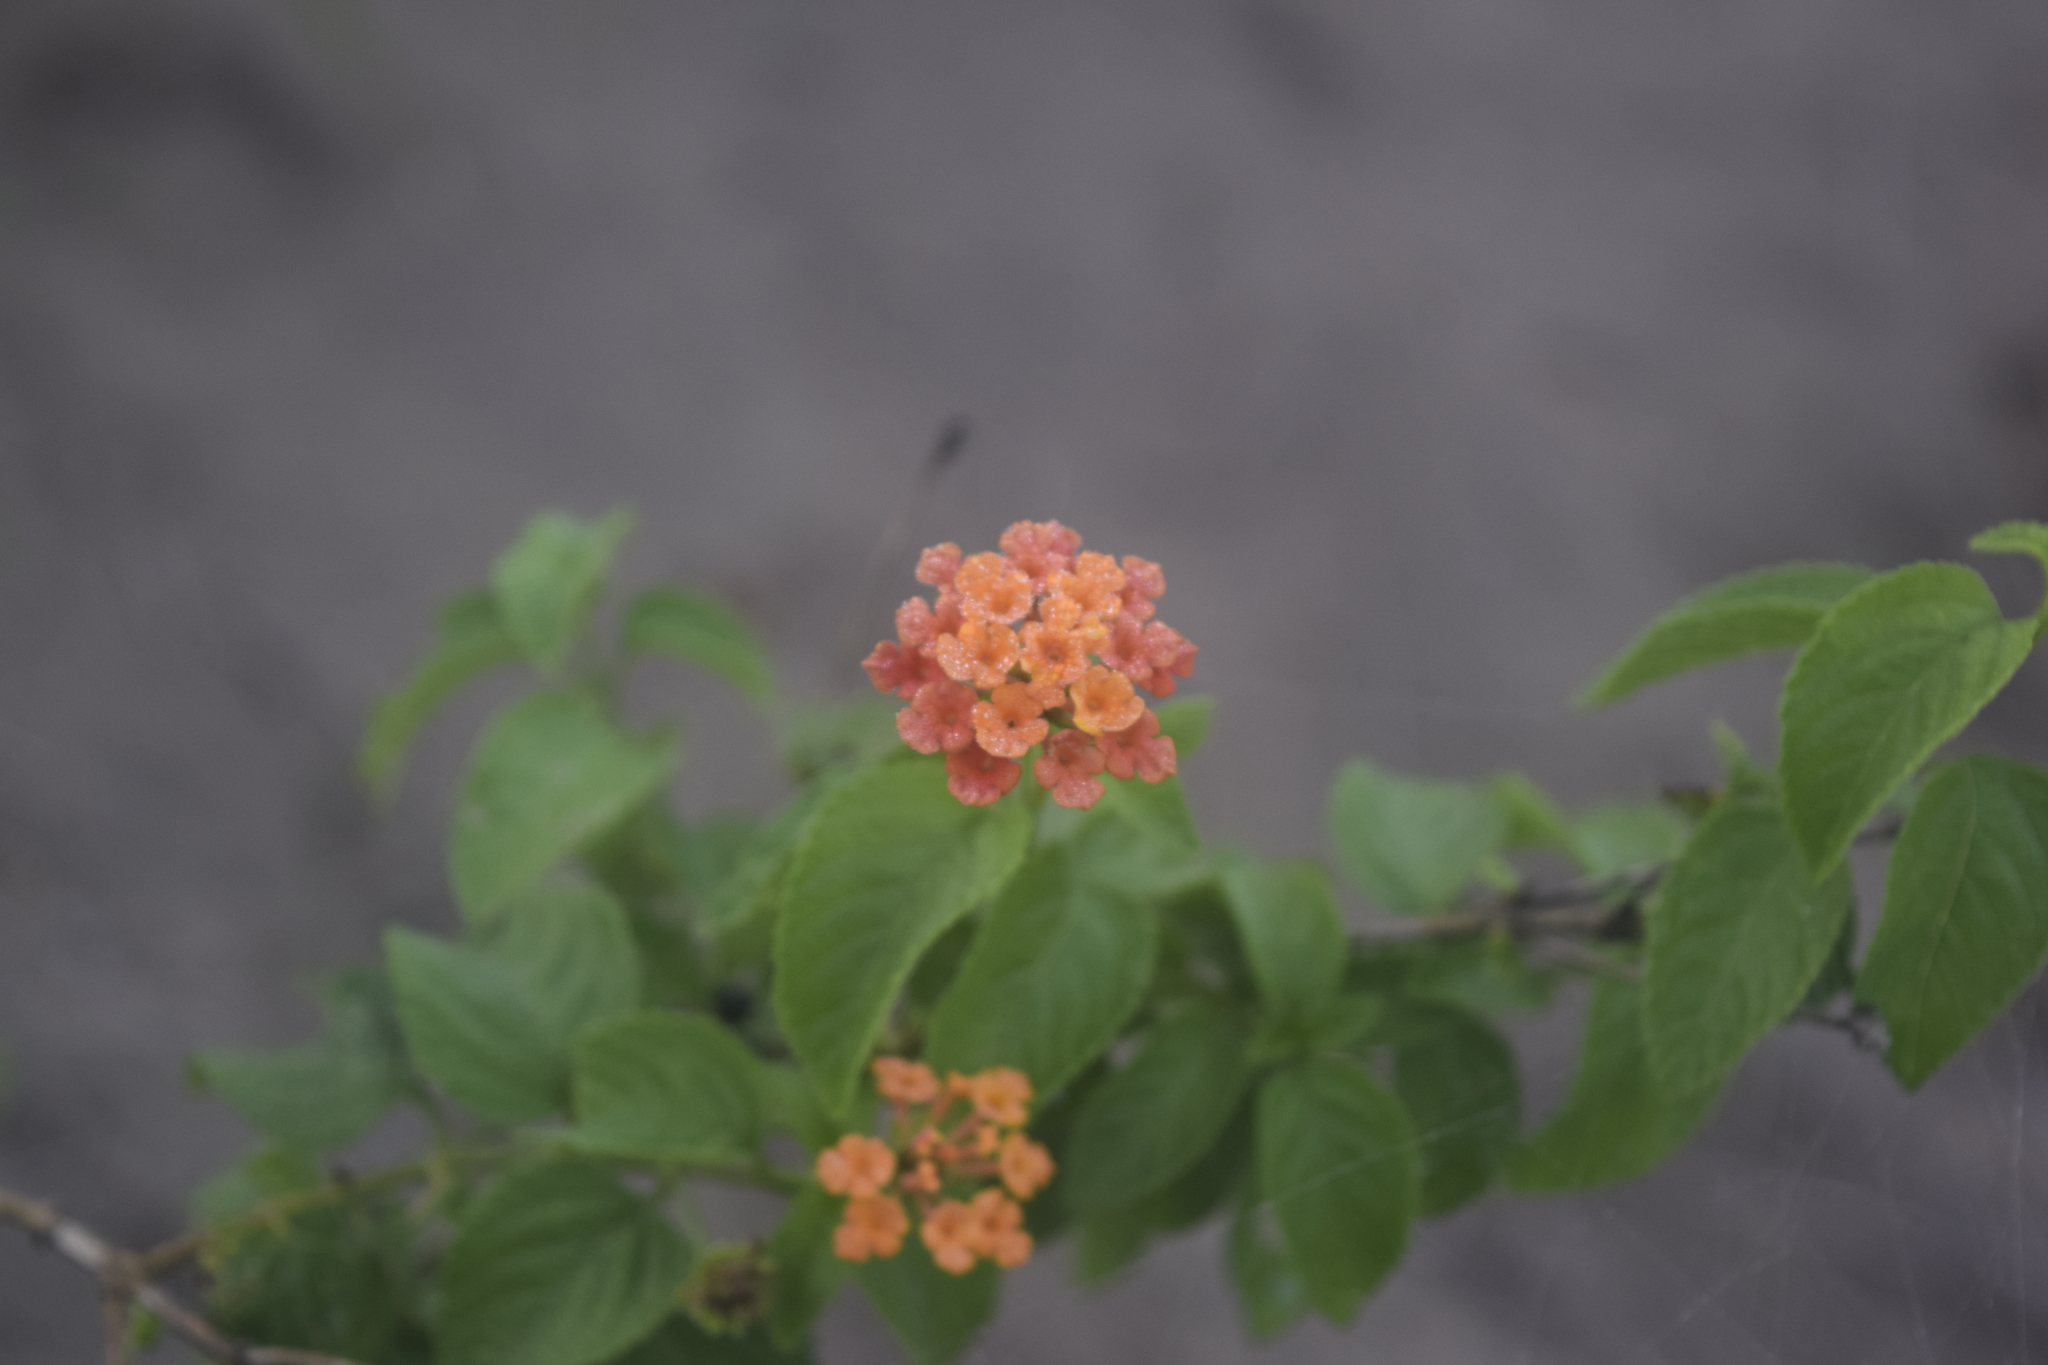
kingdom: Plantae
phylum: Tracheophyta
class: Magnoliopsida
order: Lamiales
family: Verbenaceae
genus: Lantana
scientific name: Lantana camara
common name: Lantana
